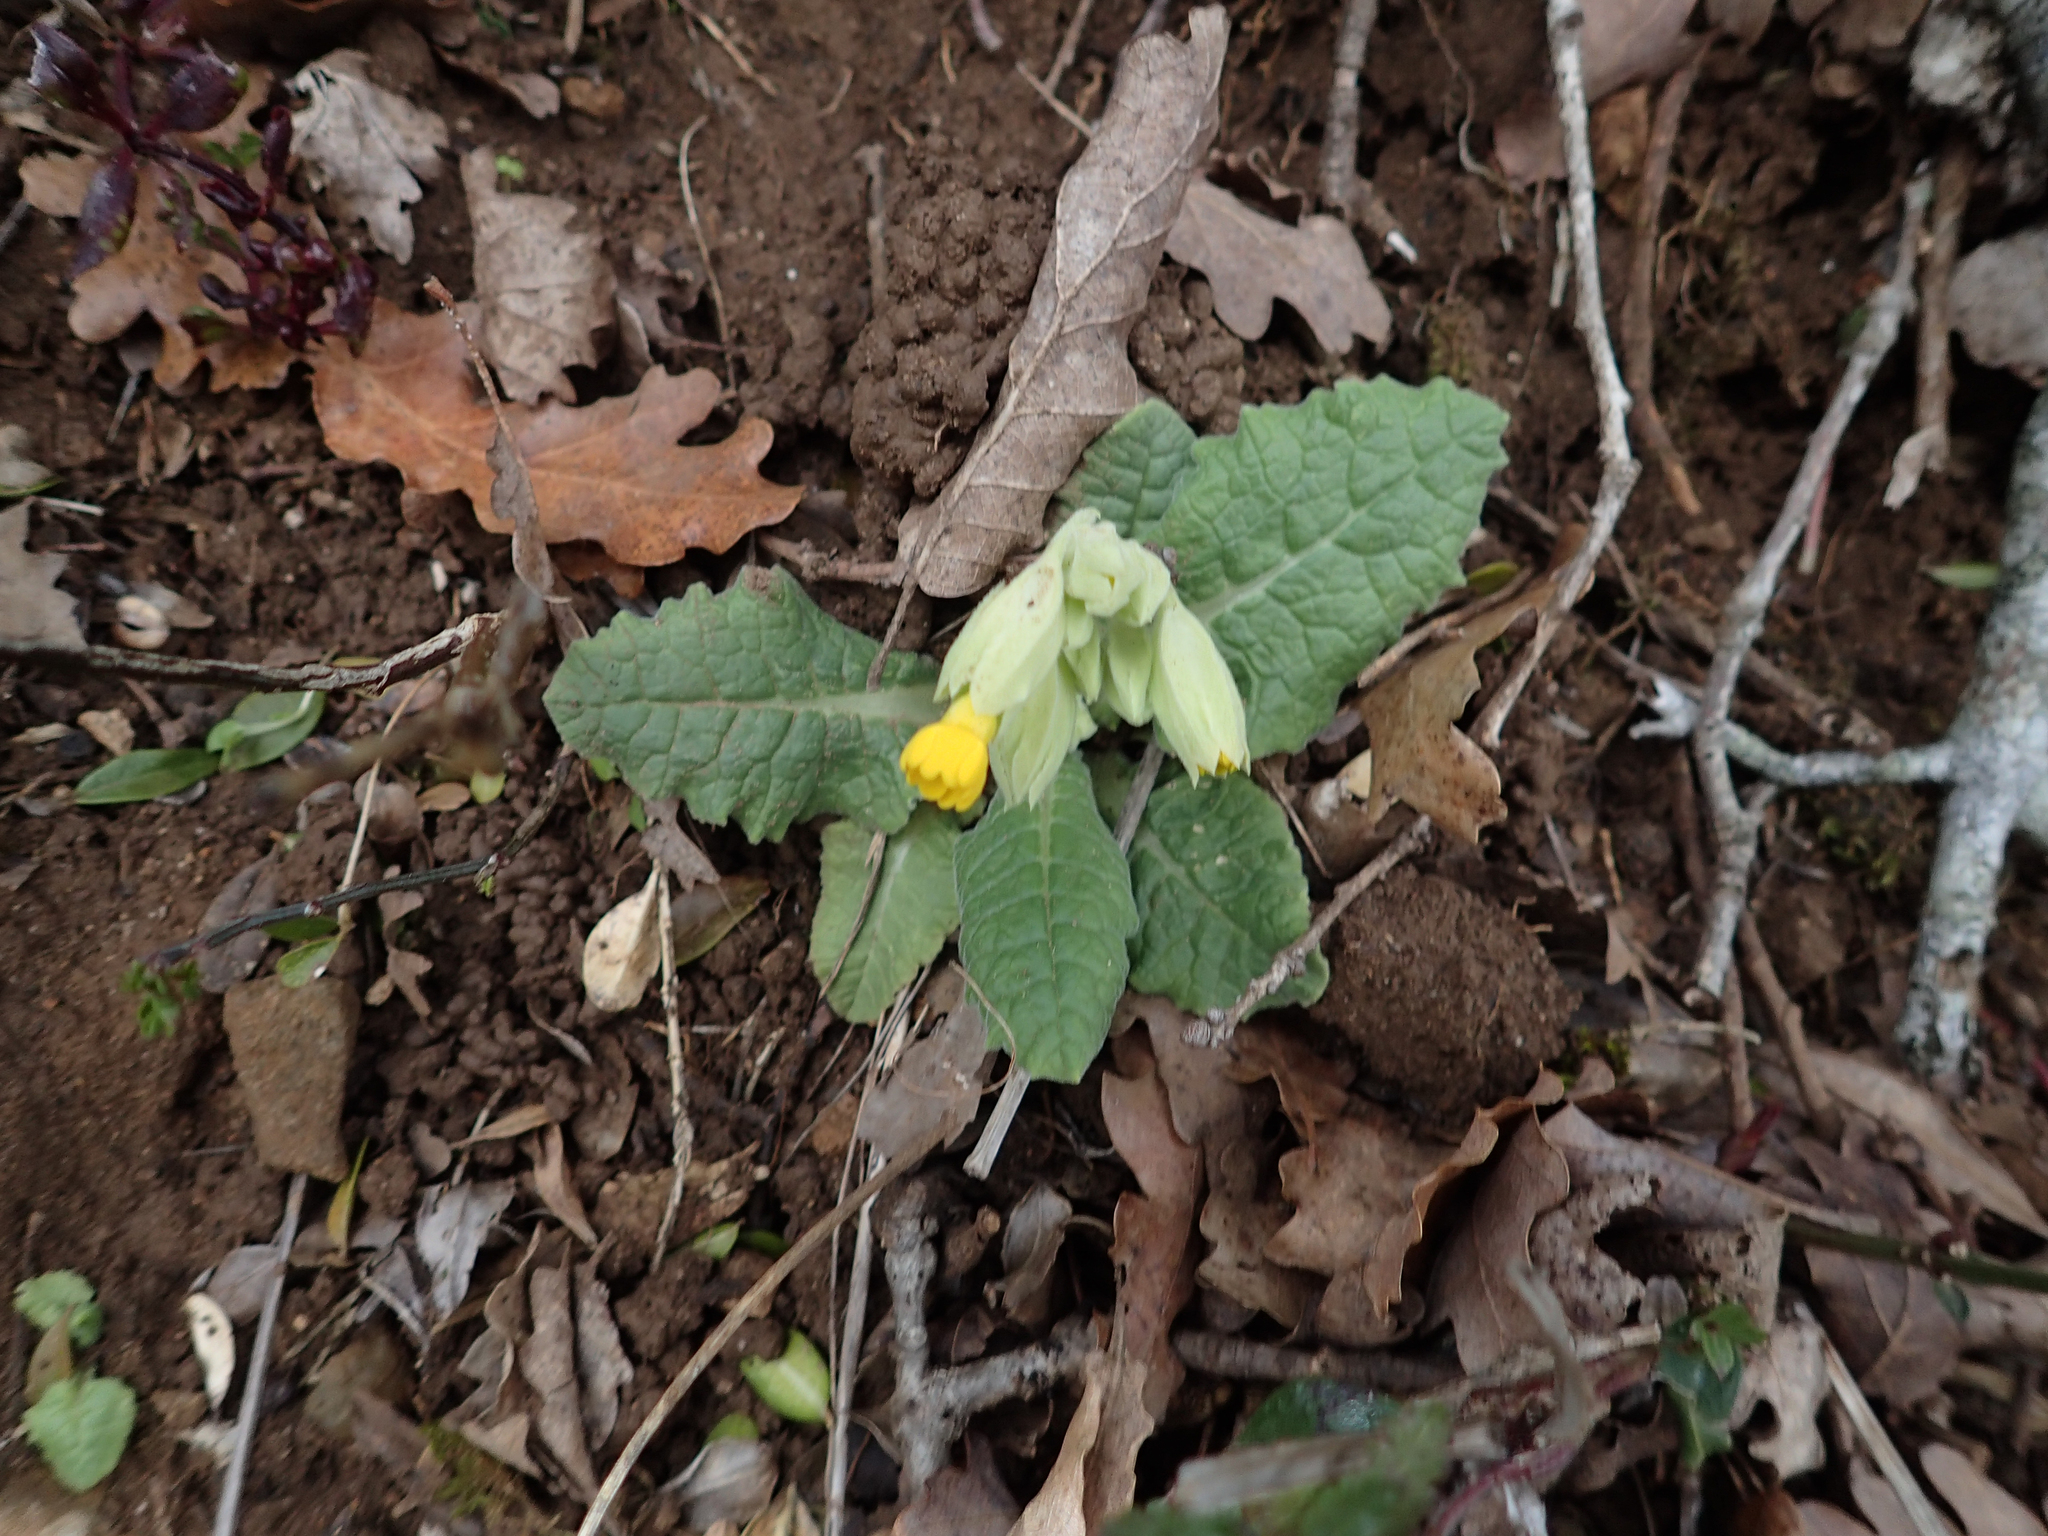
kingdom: Plantae
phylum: Tracheophyta
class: Magnoliopsida
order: Ericales
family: Primulaceae
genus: Primula
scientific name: Primula veris
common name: Cowslip
